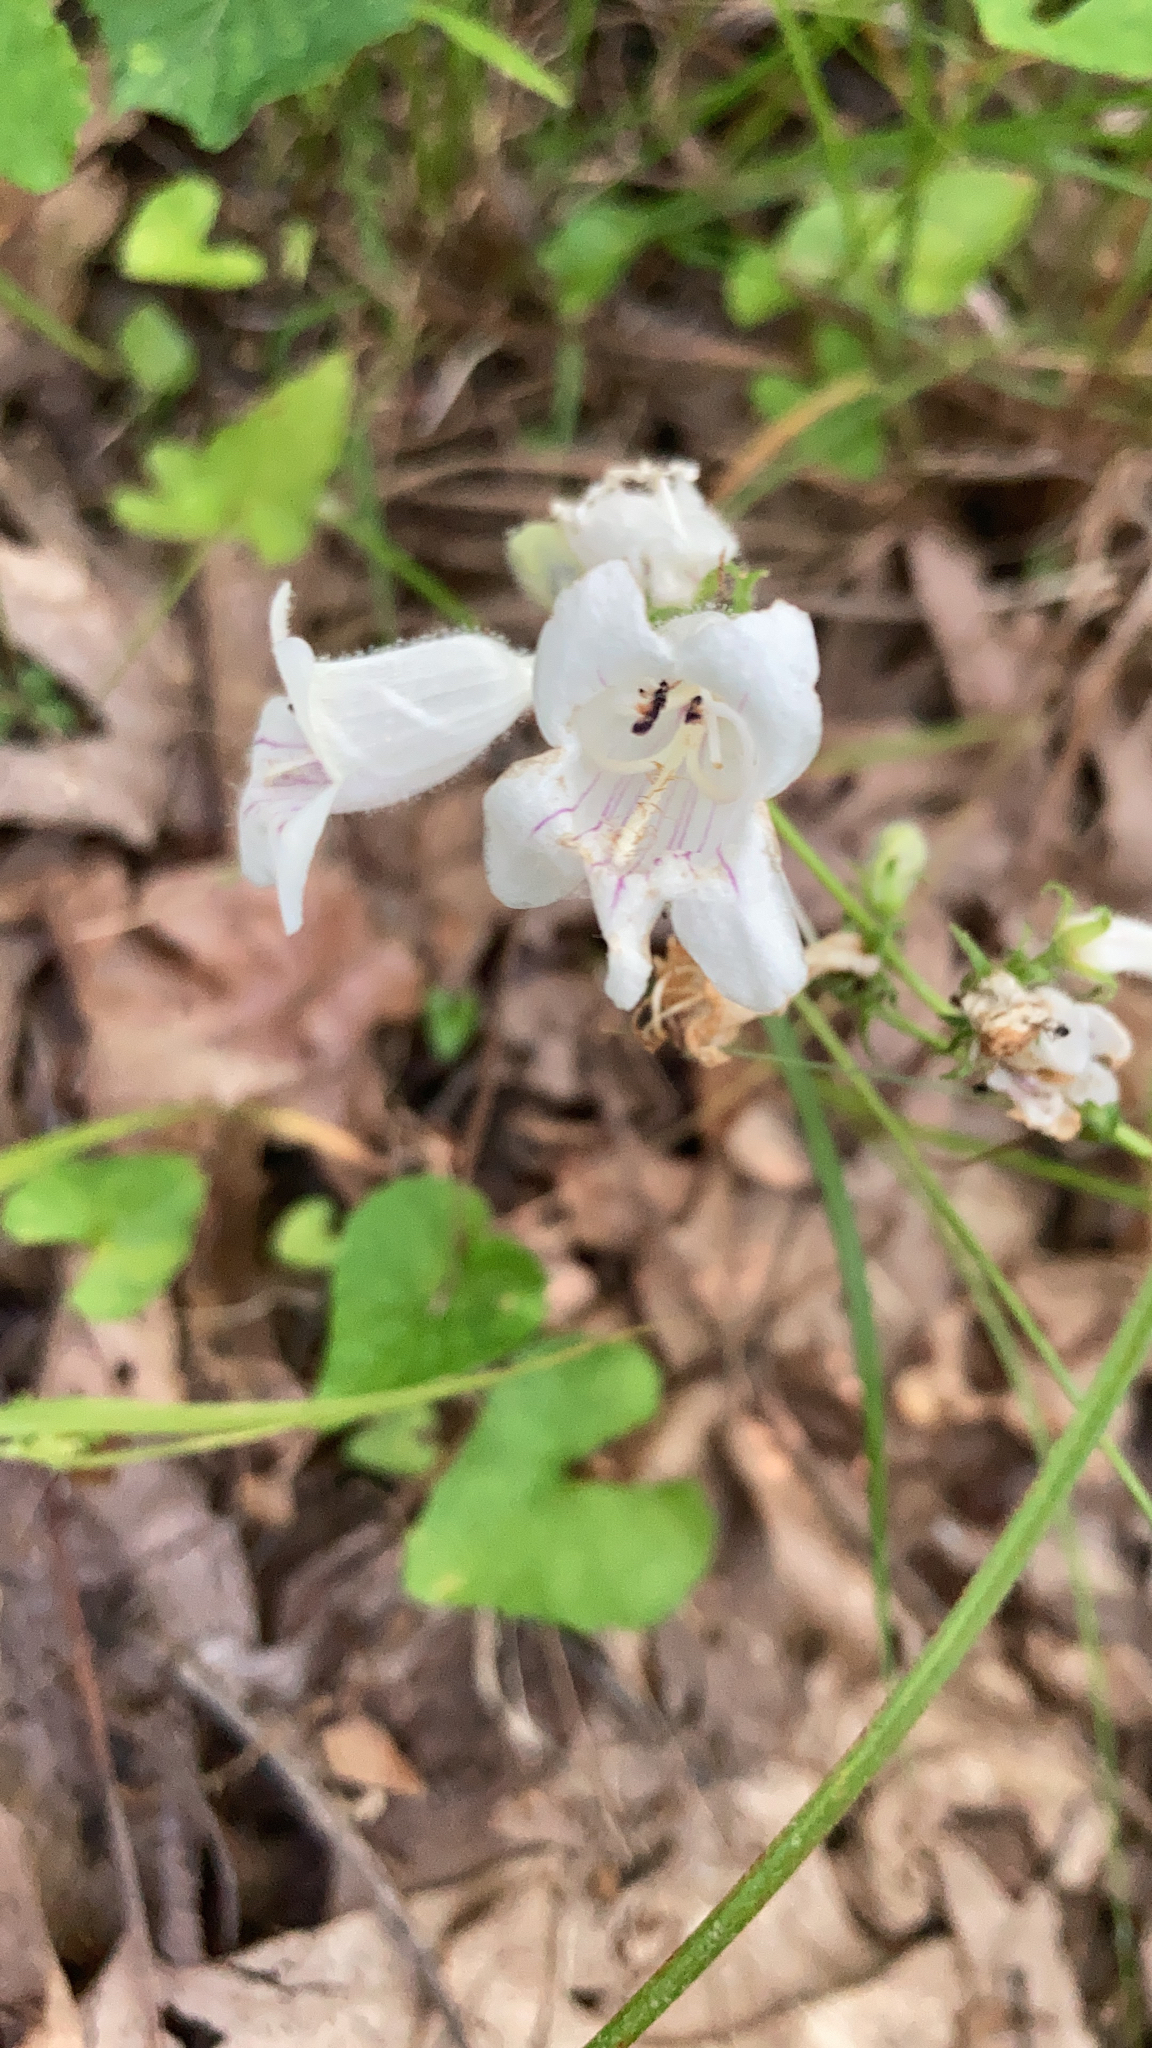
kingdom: Plantae
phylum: Tracheophyta
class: Magnoliopsida
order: Lamiales
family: Plantaginaceae
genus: Penstemon
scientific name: Penstemon digitalis
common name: Foxglove beardtongue
